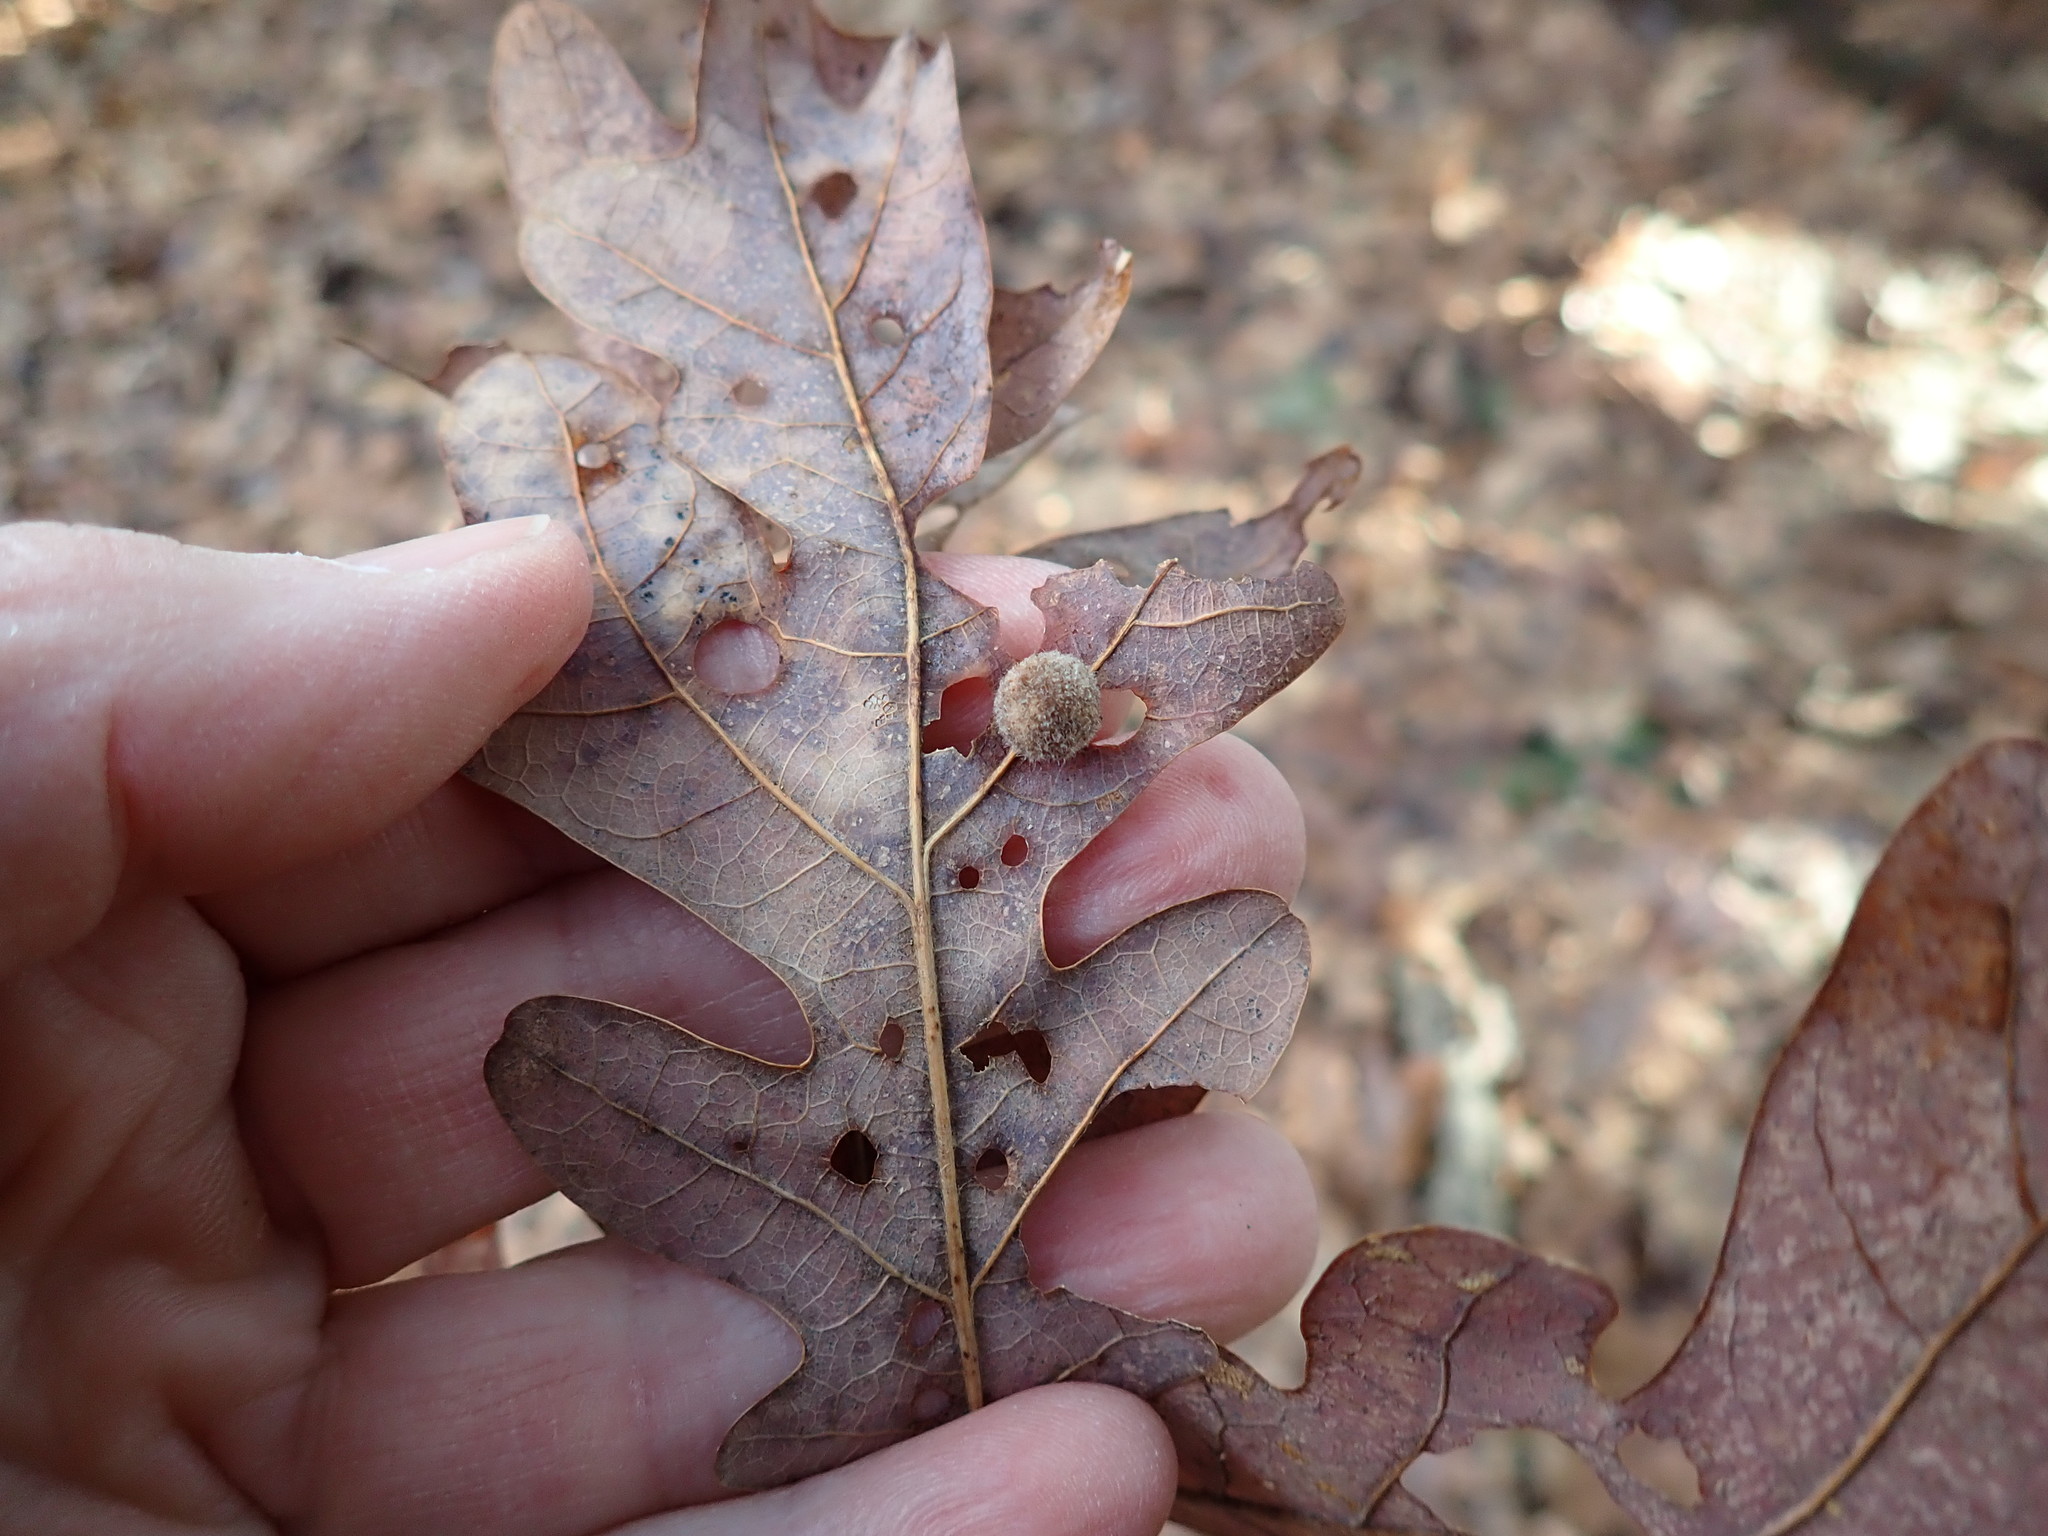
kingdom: Animalia
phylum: Arthropoda
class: Insecta
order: Hymenoptera
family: Cynipidae
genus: Philonix
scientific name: Philonix fulvicollis
